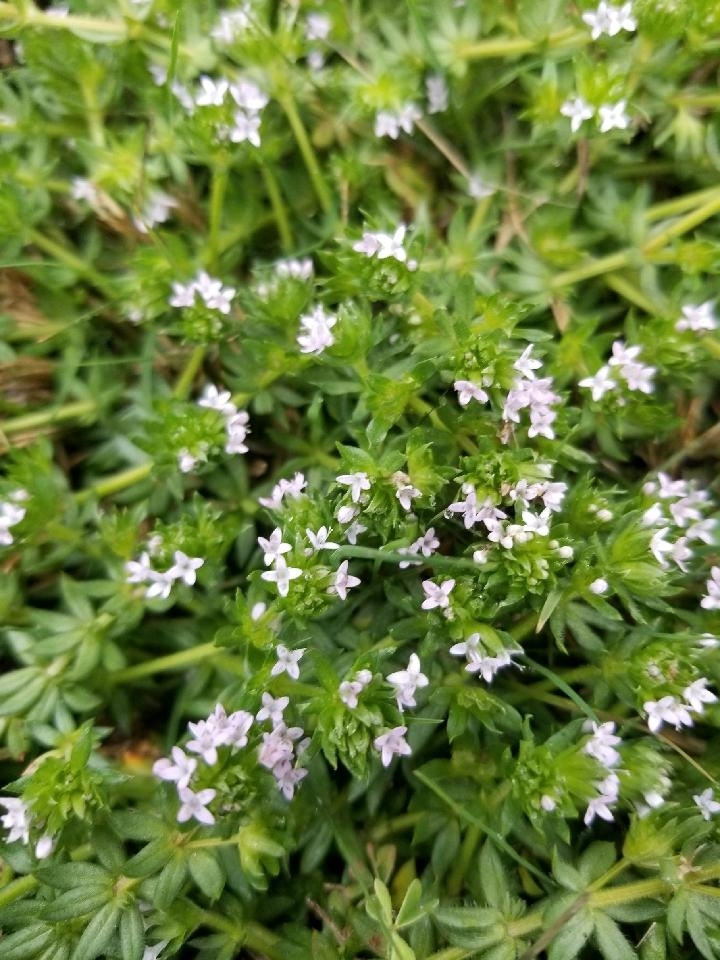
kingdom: Plantae
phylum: Tracheophyta
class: Magnoliopsida
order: Gentianales
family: Rubiaceae
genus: Sherardia
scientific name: Sherardia arvensis
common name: Field madder
